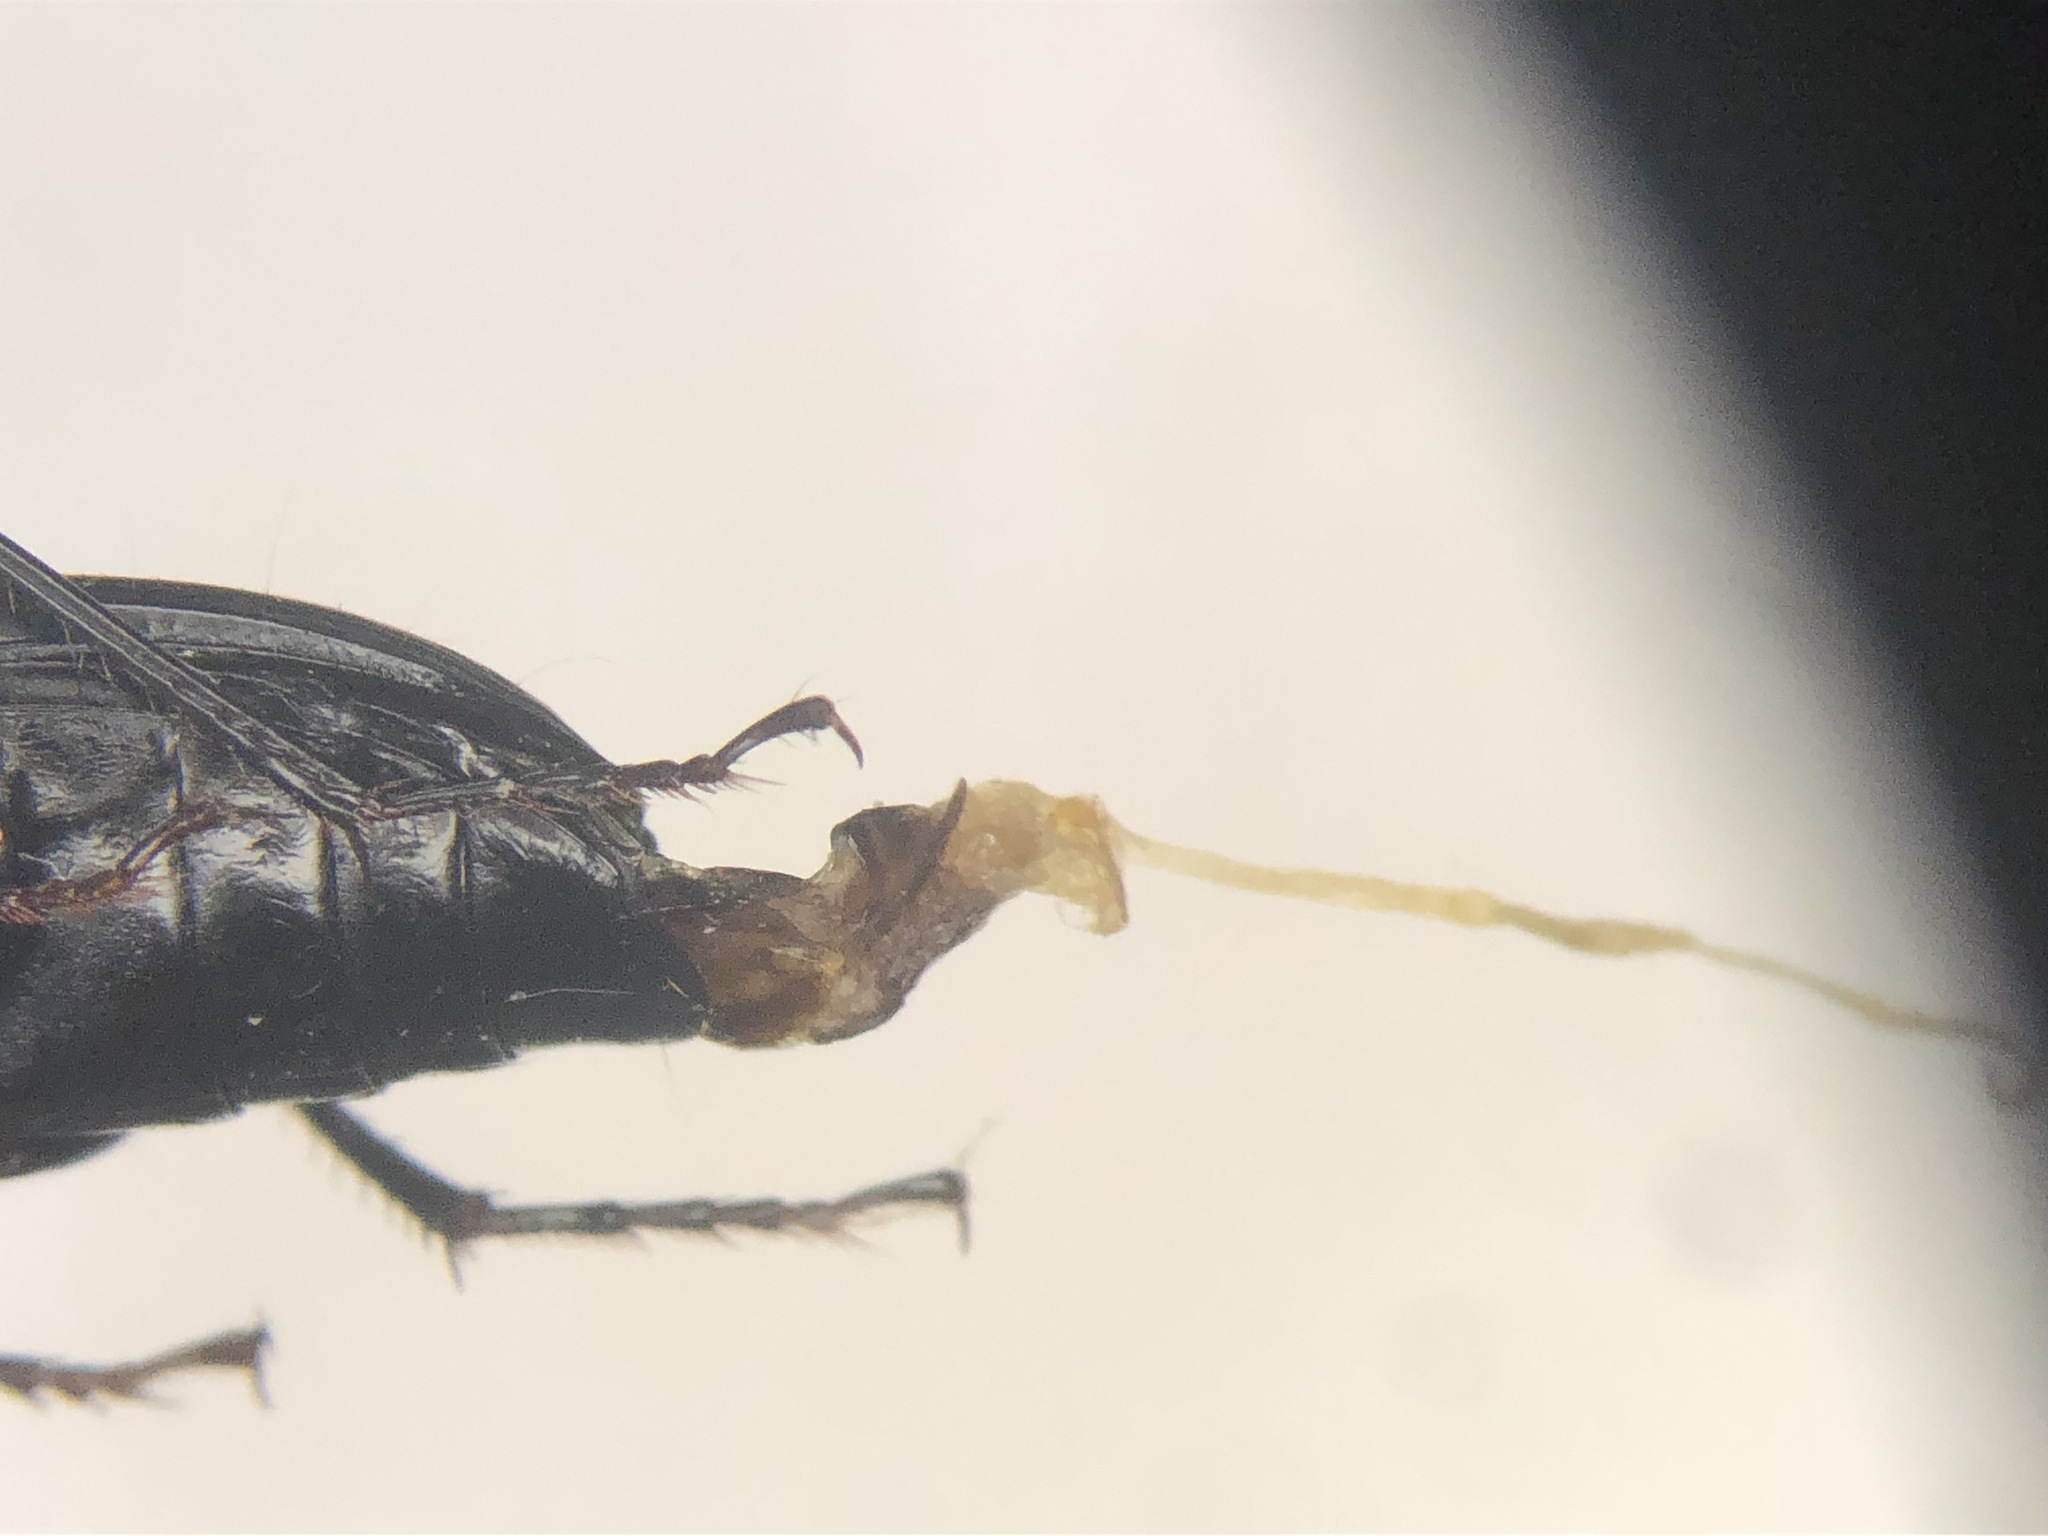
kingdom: Animalia
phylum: Arthropoda
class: Insecta
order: Coleoptera
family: Carabidae
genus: Pterostichus
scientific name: Pterostichus lachrymosus
